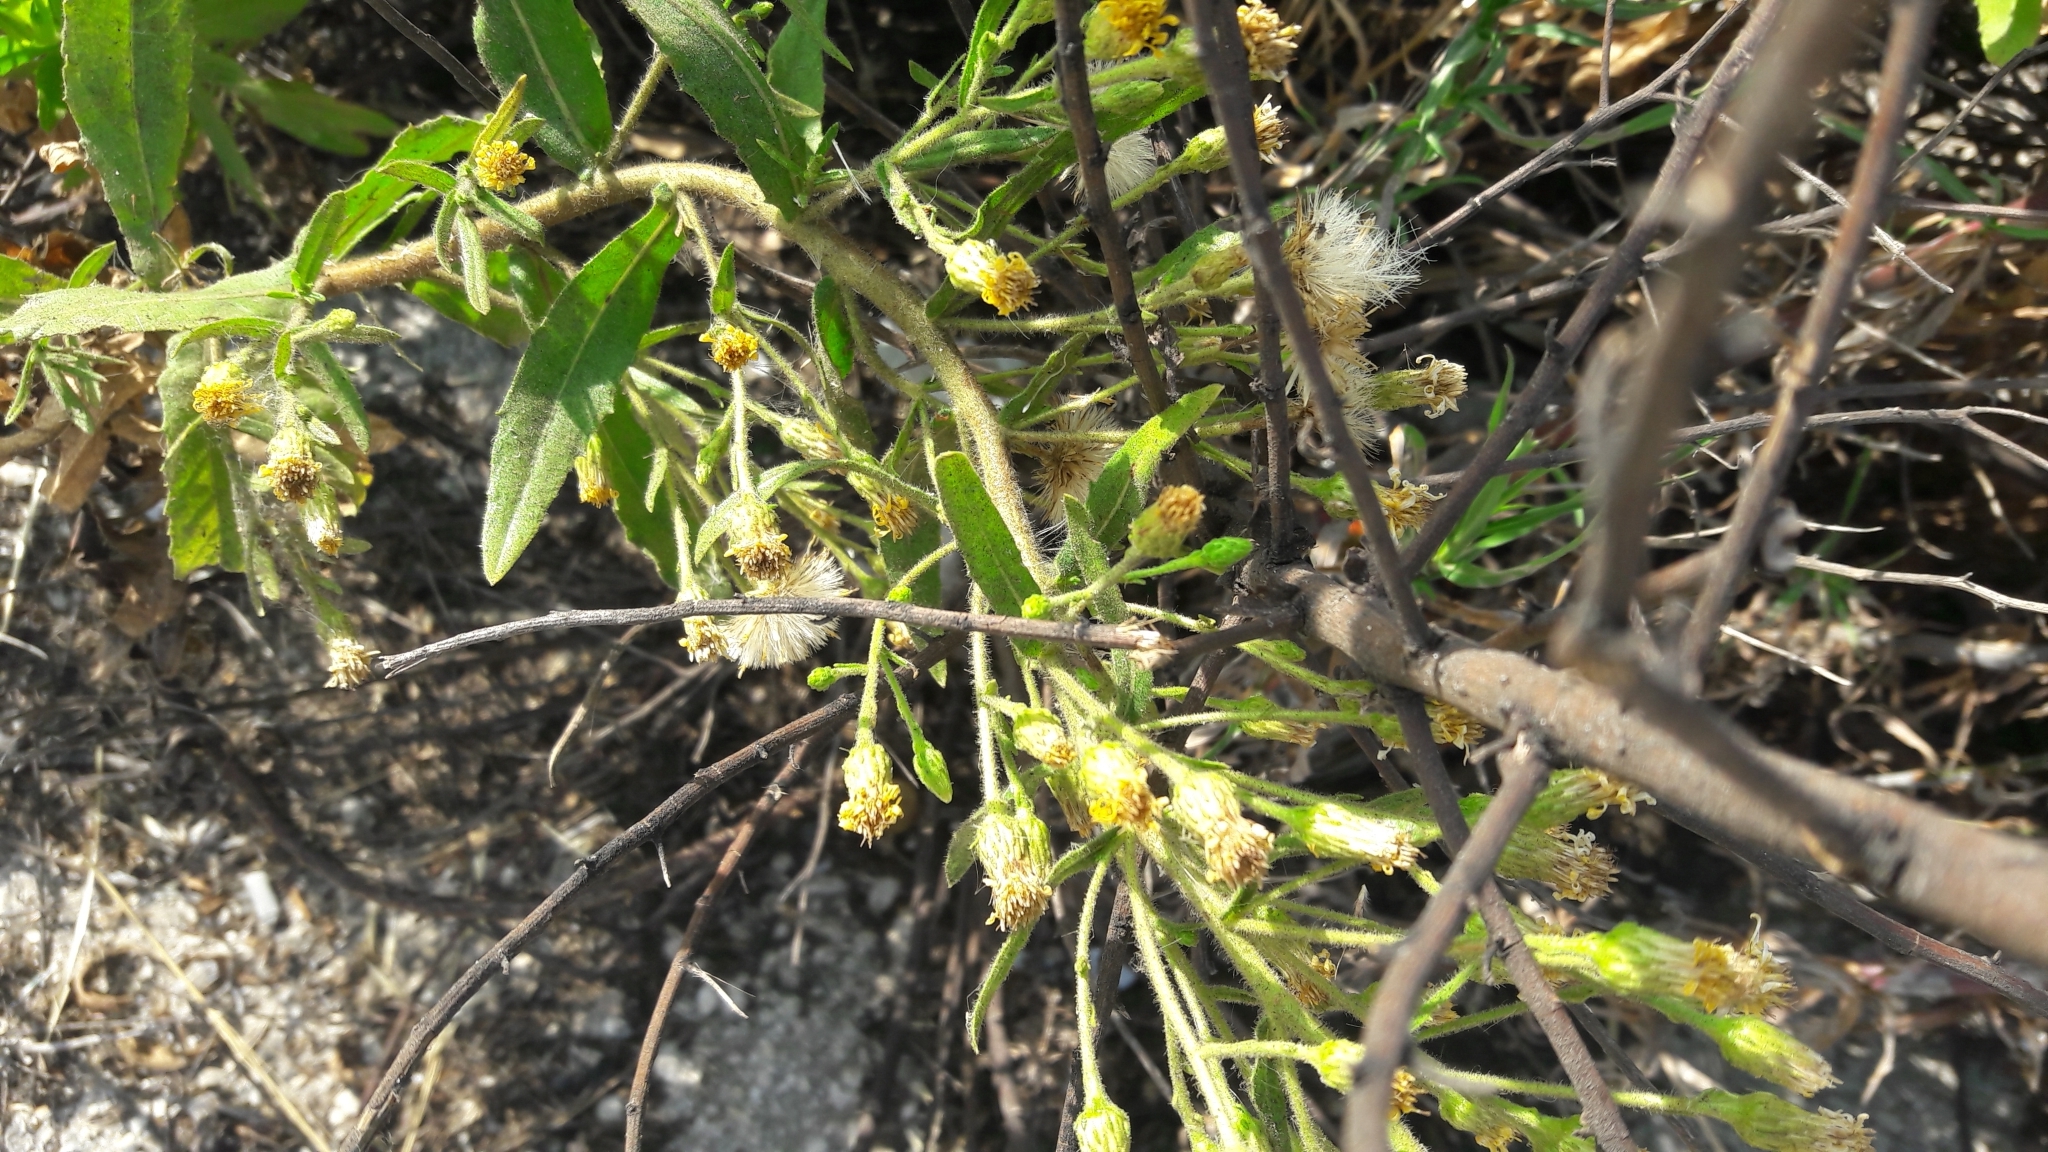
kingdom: Plantae
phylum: Tracheophyta
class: Magnoliopsida
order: Asterales
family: Asteraceae
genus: Dittrichia
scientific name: Dittrichia viscosa
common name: Woody fleabane
